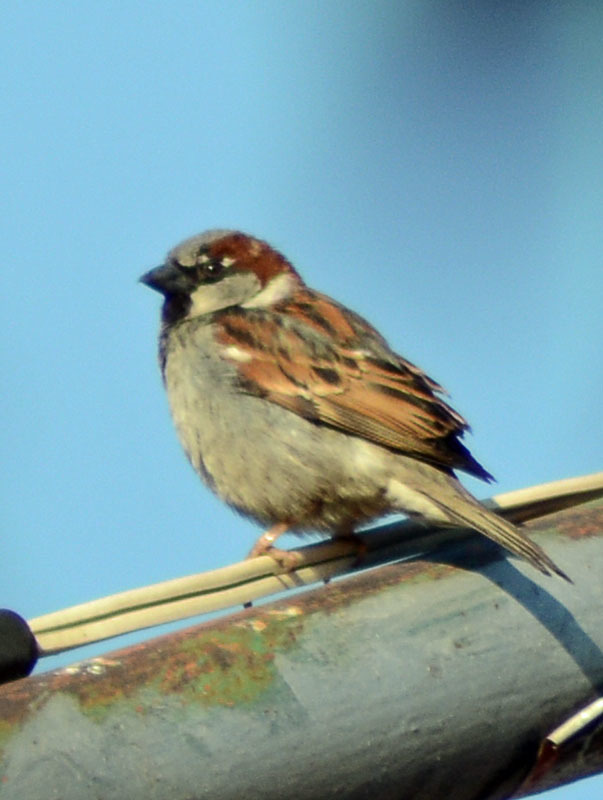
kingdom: Animalia
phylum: Chordata
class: Aves
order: Passeriformes
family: Passeridae
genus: Passer
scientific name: Passer domesticus
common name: House sparrow
